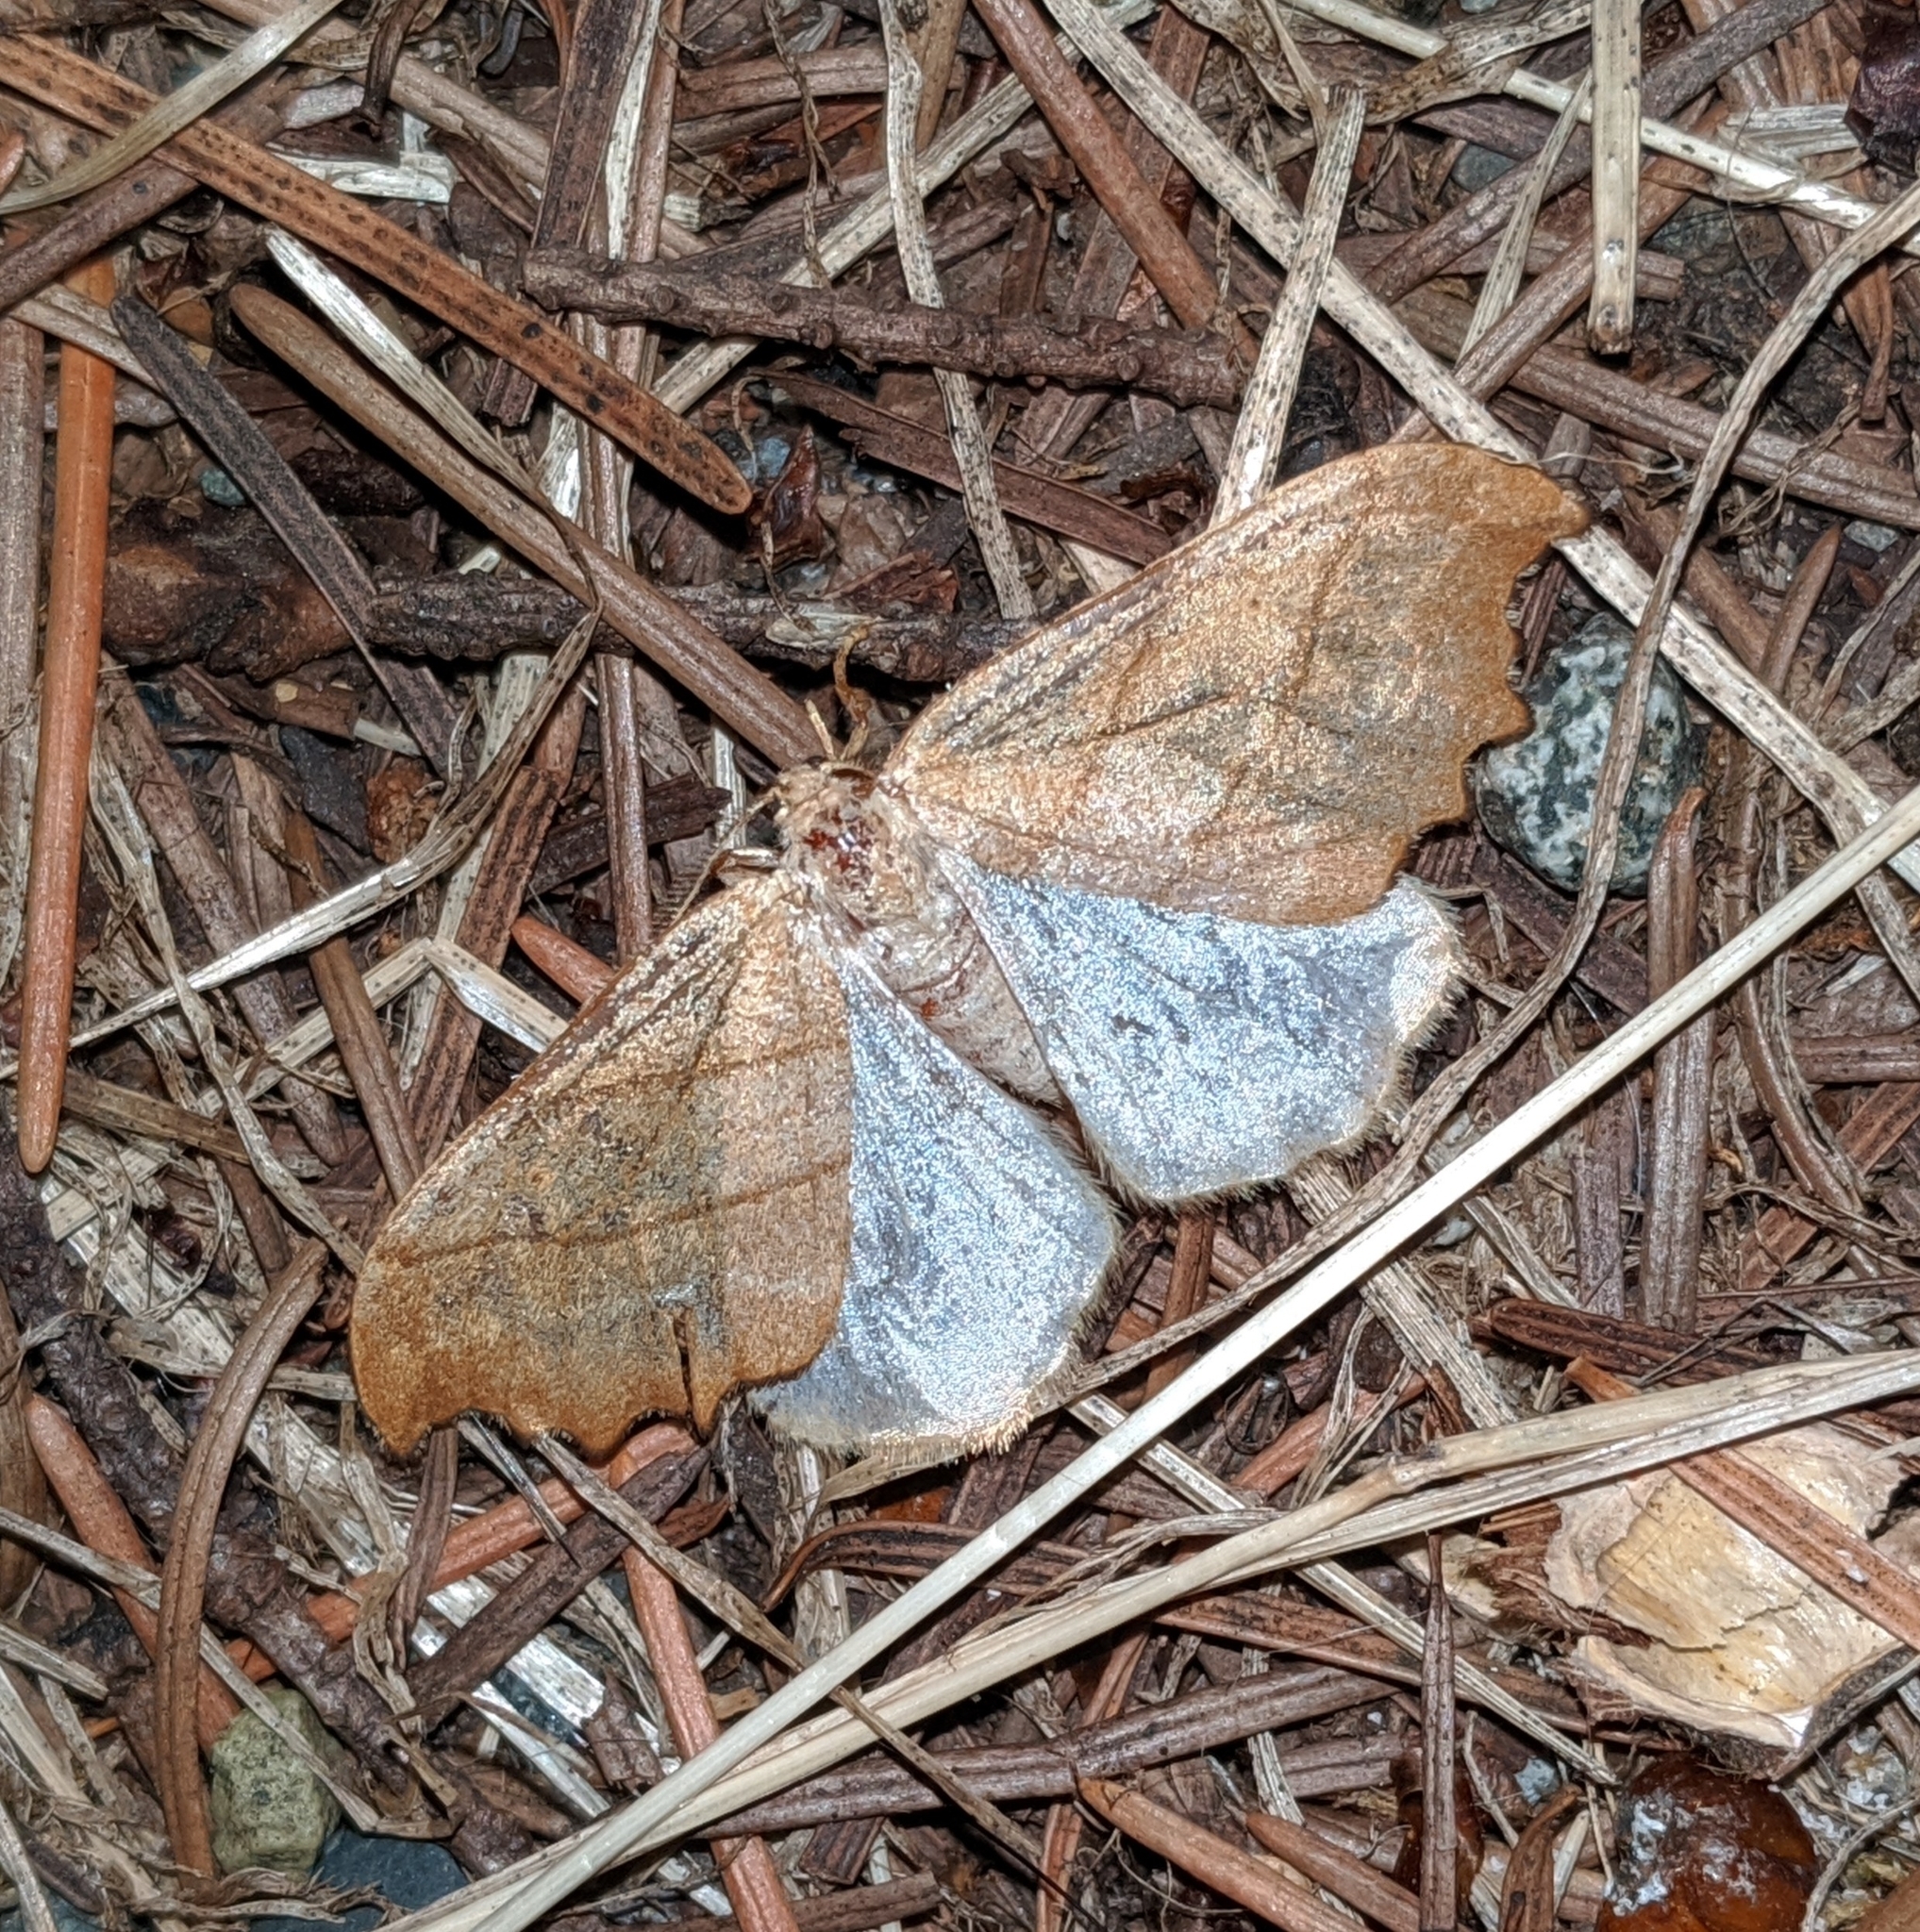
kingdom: Animalia
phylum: Arthropoda
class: Insecta
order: Lepidoptera
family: Drepanidae
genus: Falcaria
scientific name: Falcaria bilineata
